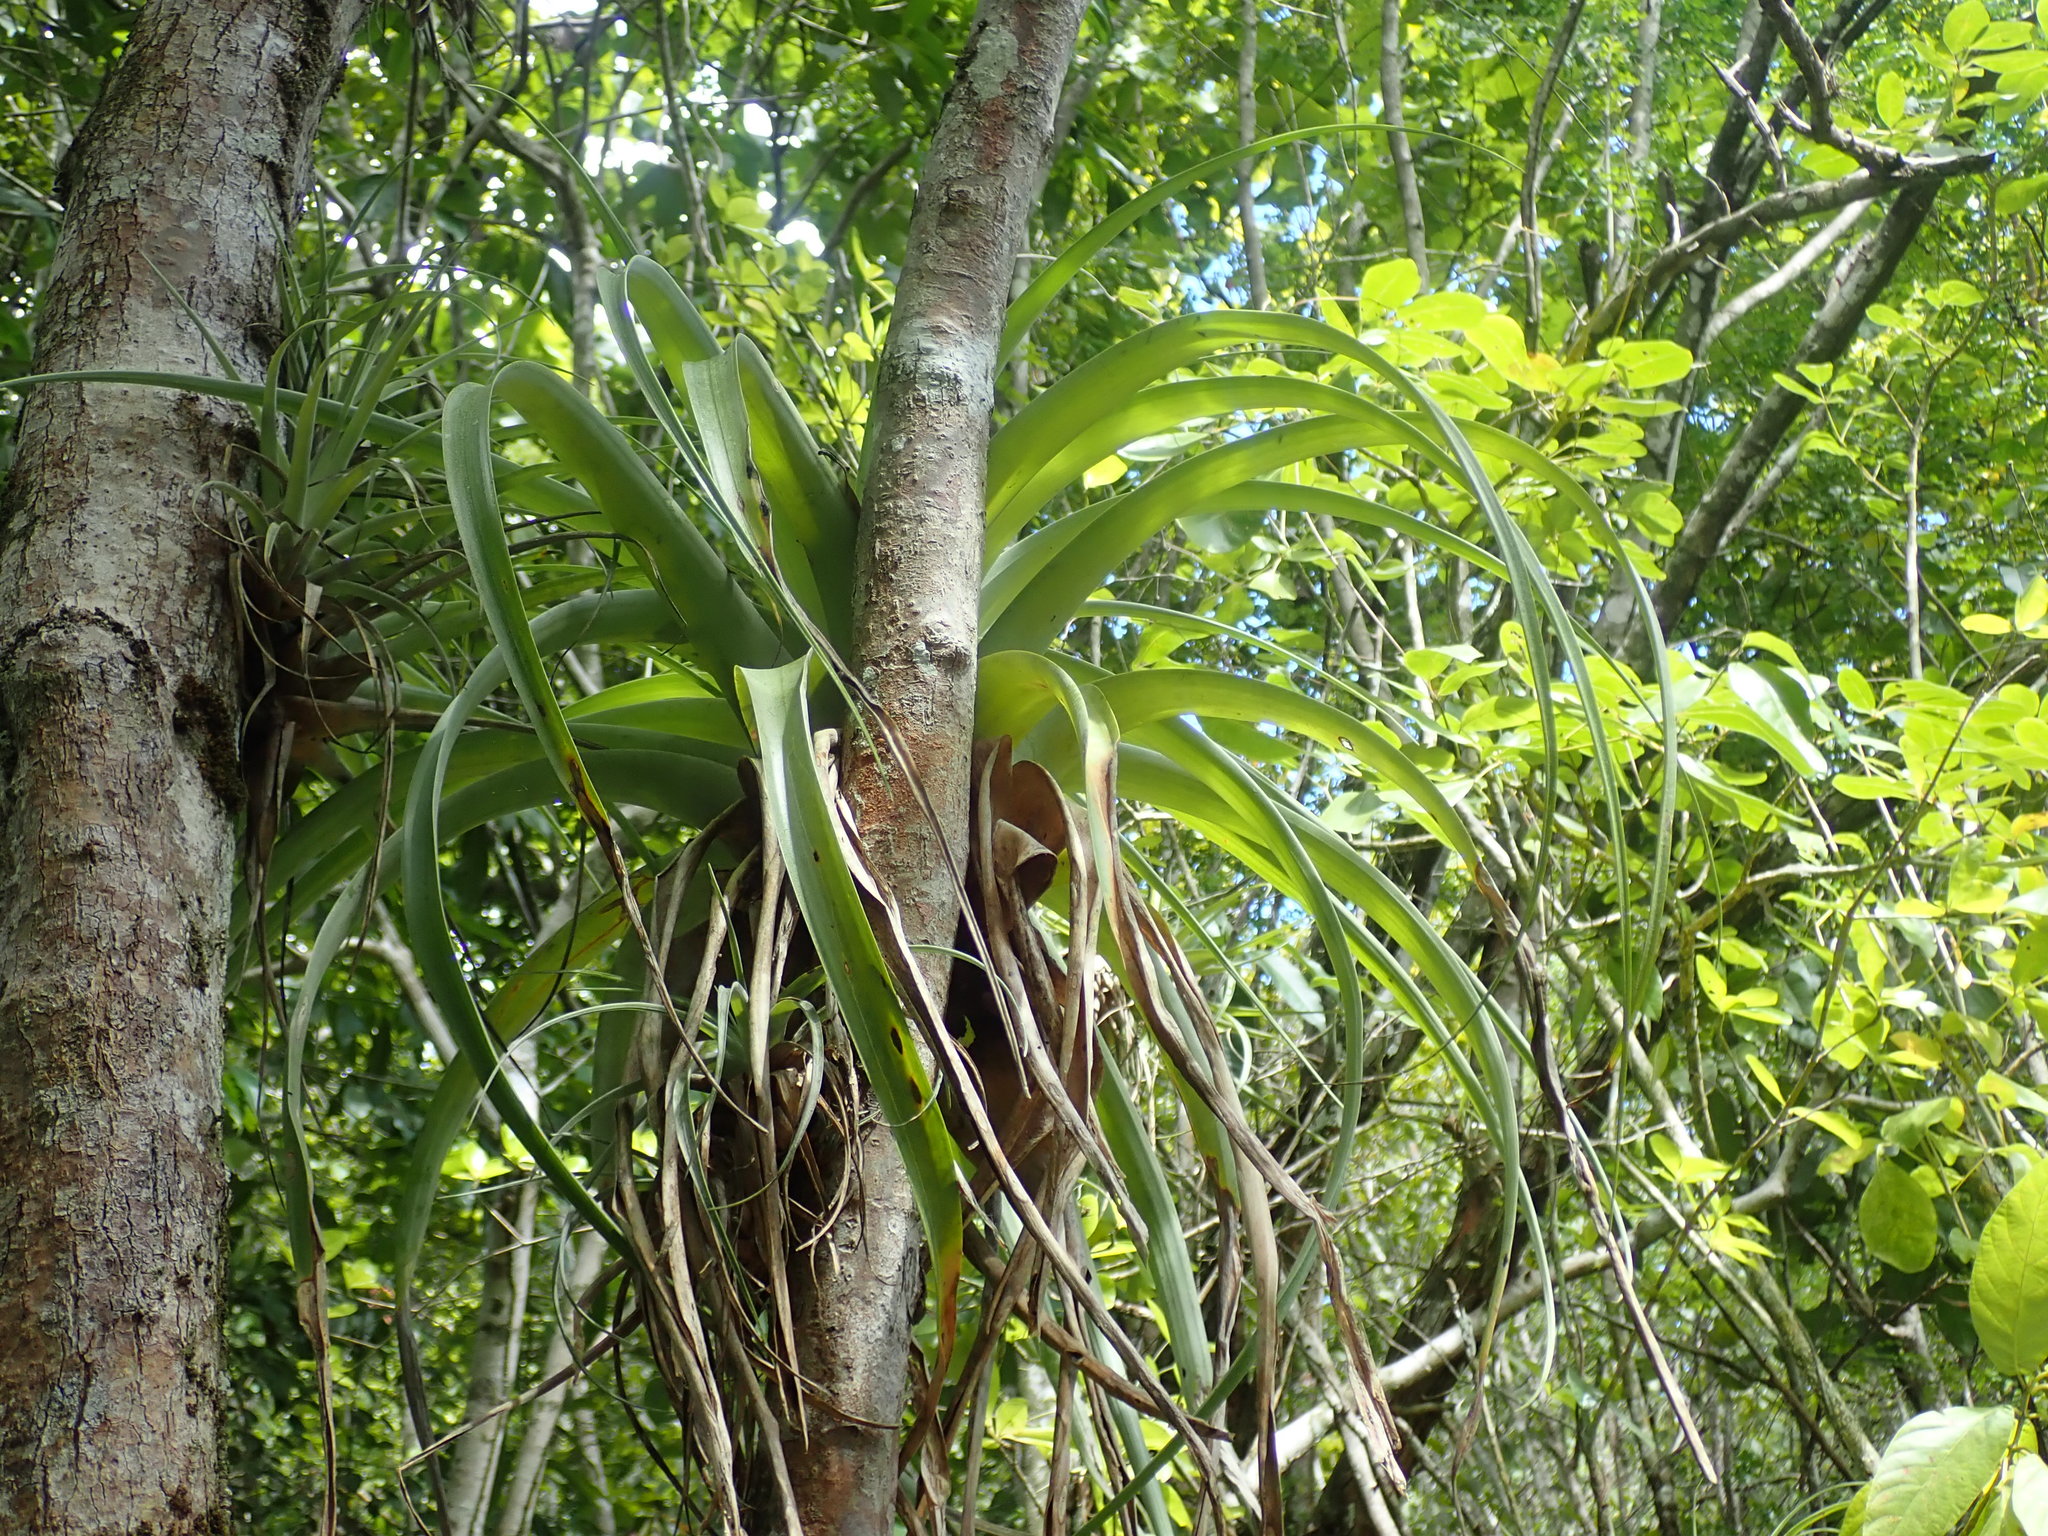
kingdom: Plantae
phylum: Tracheophyta
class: Liliopsida
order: Poales
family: Bromeliaceae
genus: Tillandsia
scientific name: Tillandsia utriculata
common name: Wild pine
